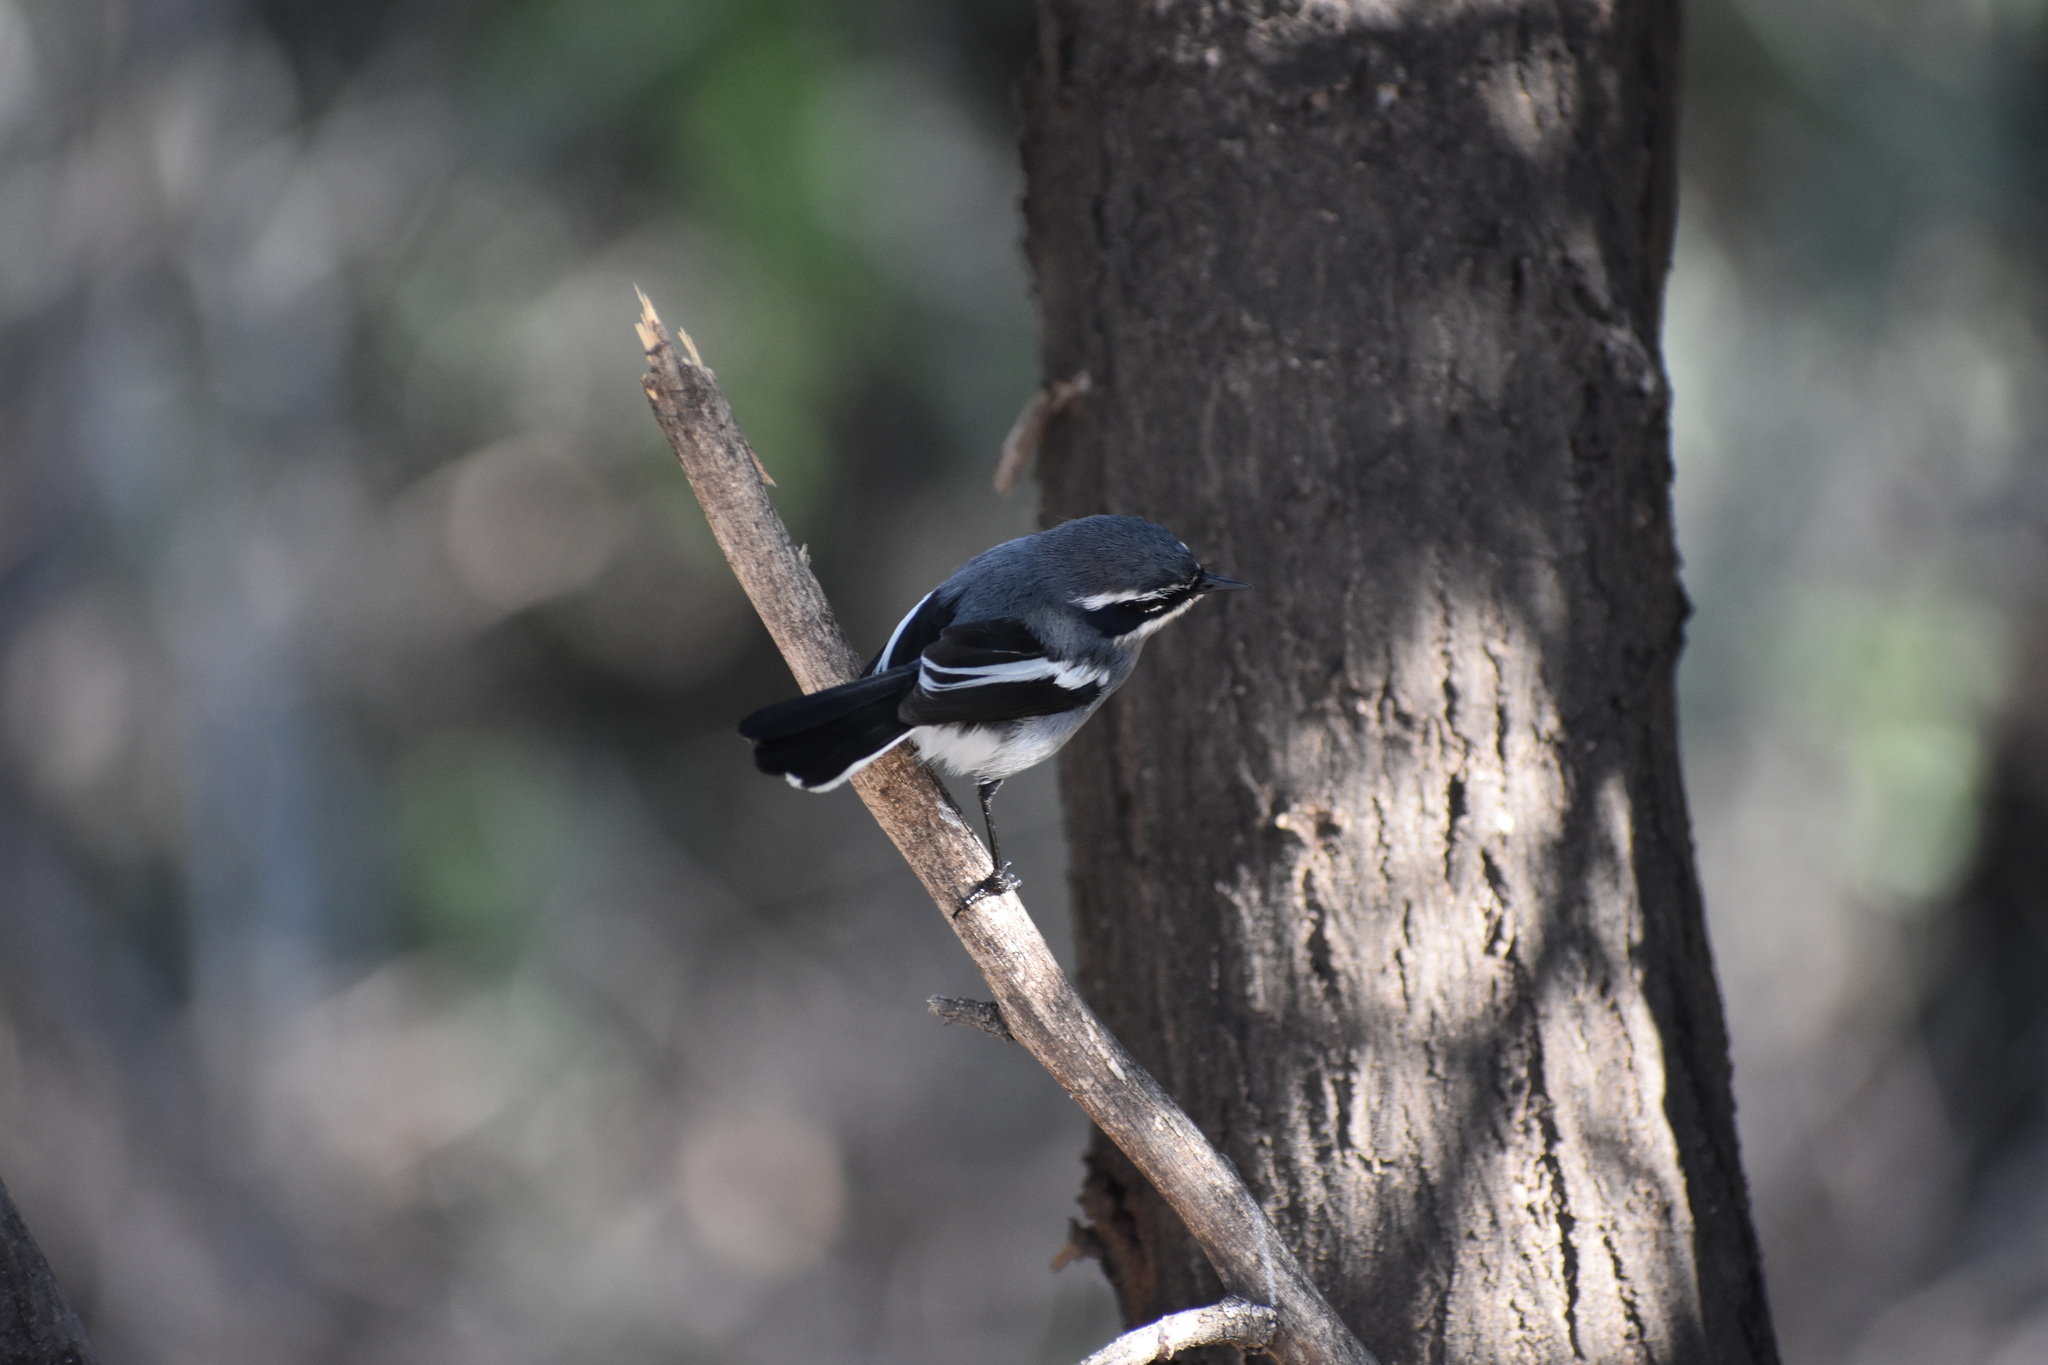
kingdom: Animalia
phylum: Chordata
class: Aves
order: Passeriformes
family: Stenostiridae
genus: Stenostira
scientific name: Stenostira scita
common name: Fairy flycatcher
